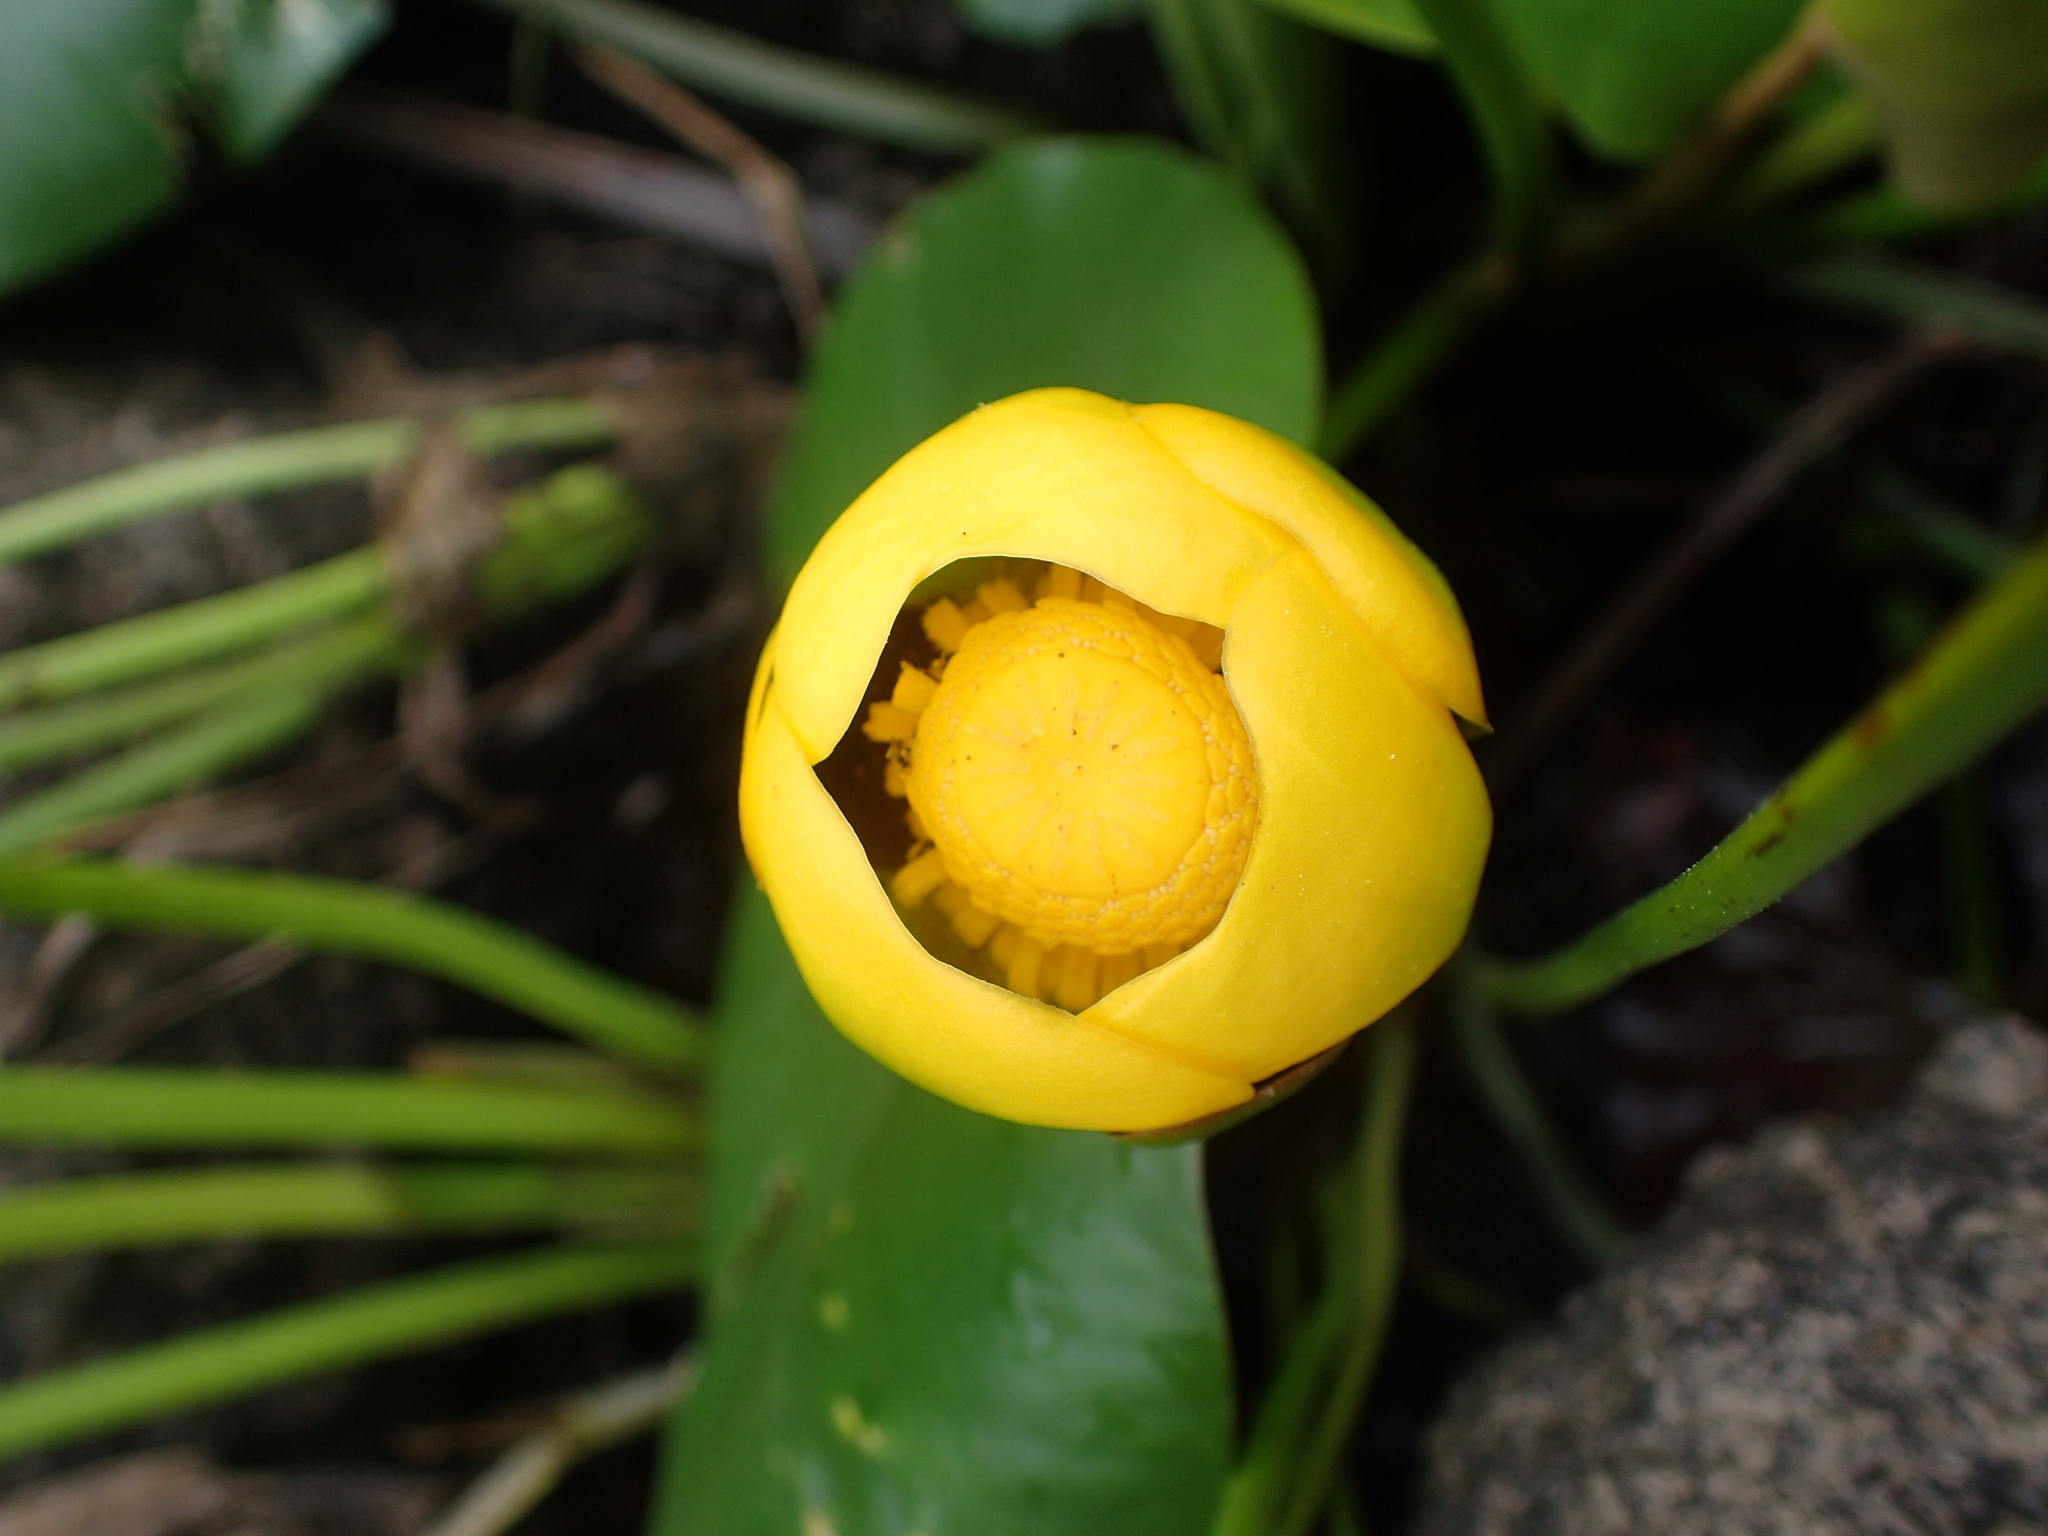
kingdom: Plantae
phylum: Tracheophyta
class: Magnoliopsida
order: Nymphaeales
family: Nymphaeaceae
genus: Nuphar
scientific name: Nuphar variegata
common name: Beaver-root
